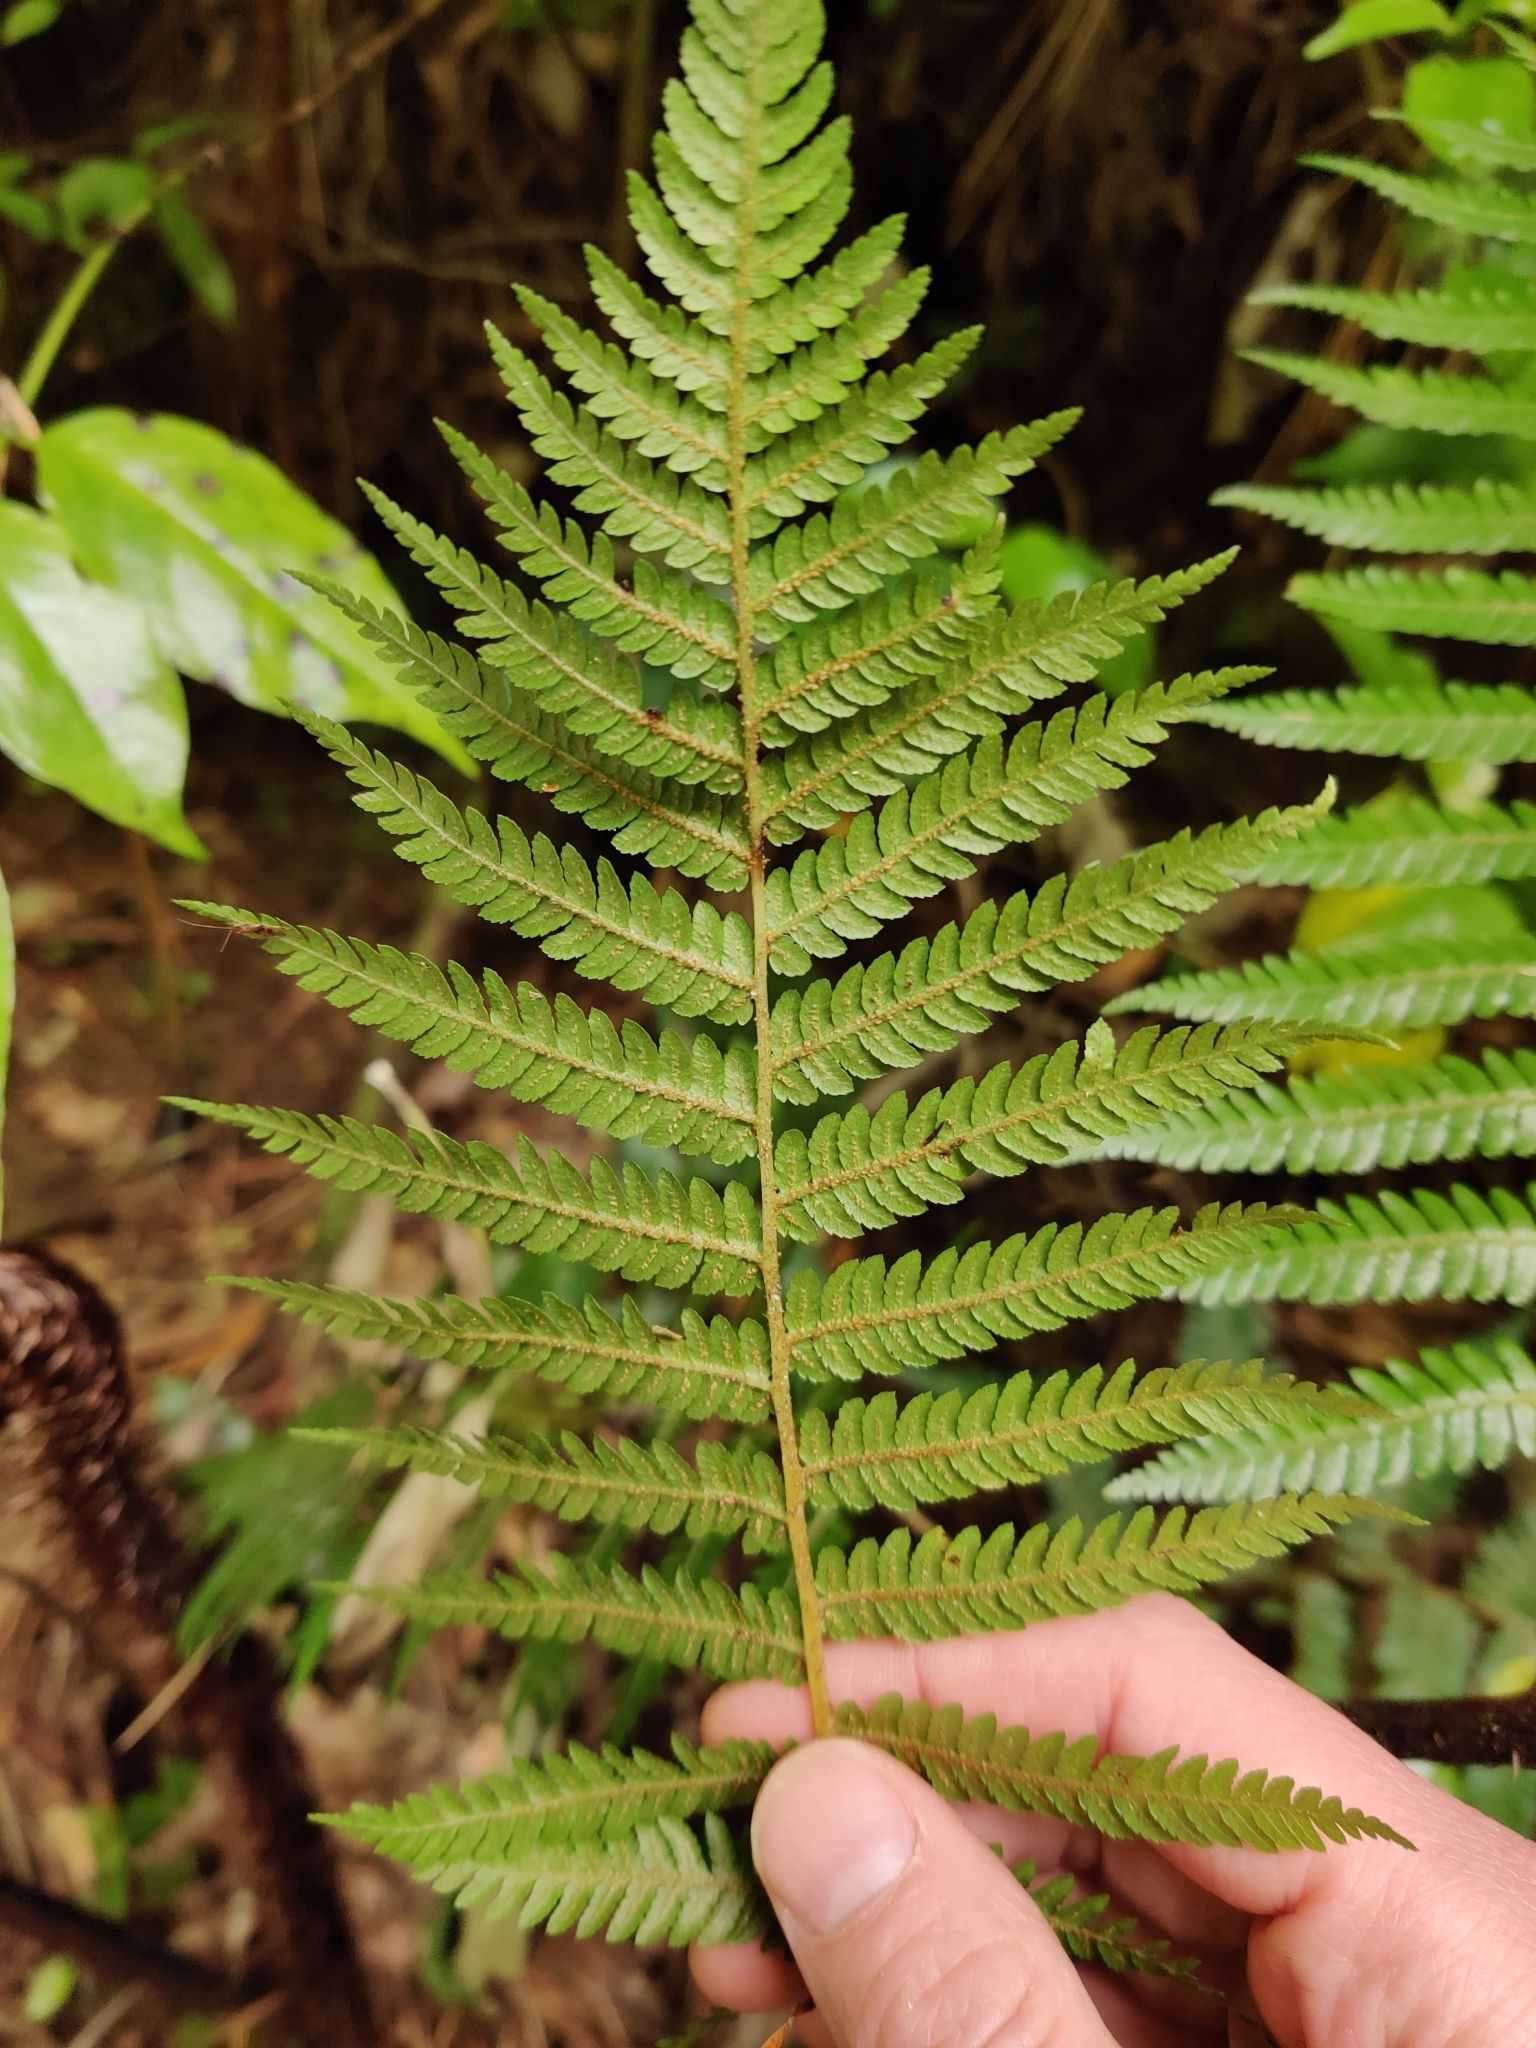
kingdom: Plantae
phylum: Tracheophyta
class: Polypodiopsida
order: Cyatheales
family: Cyatheaceae
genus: Sphaeropteris
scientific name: Sphaeropteris medullaris
